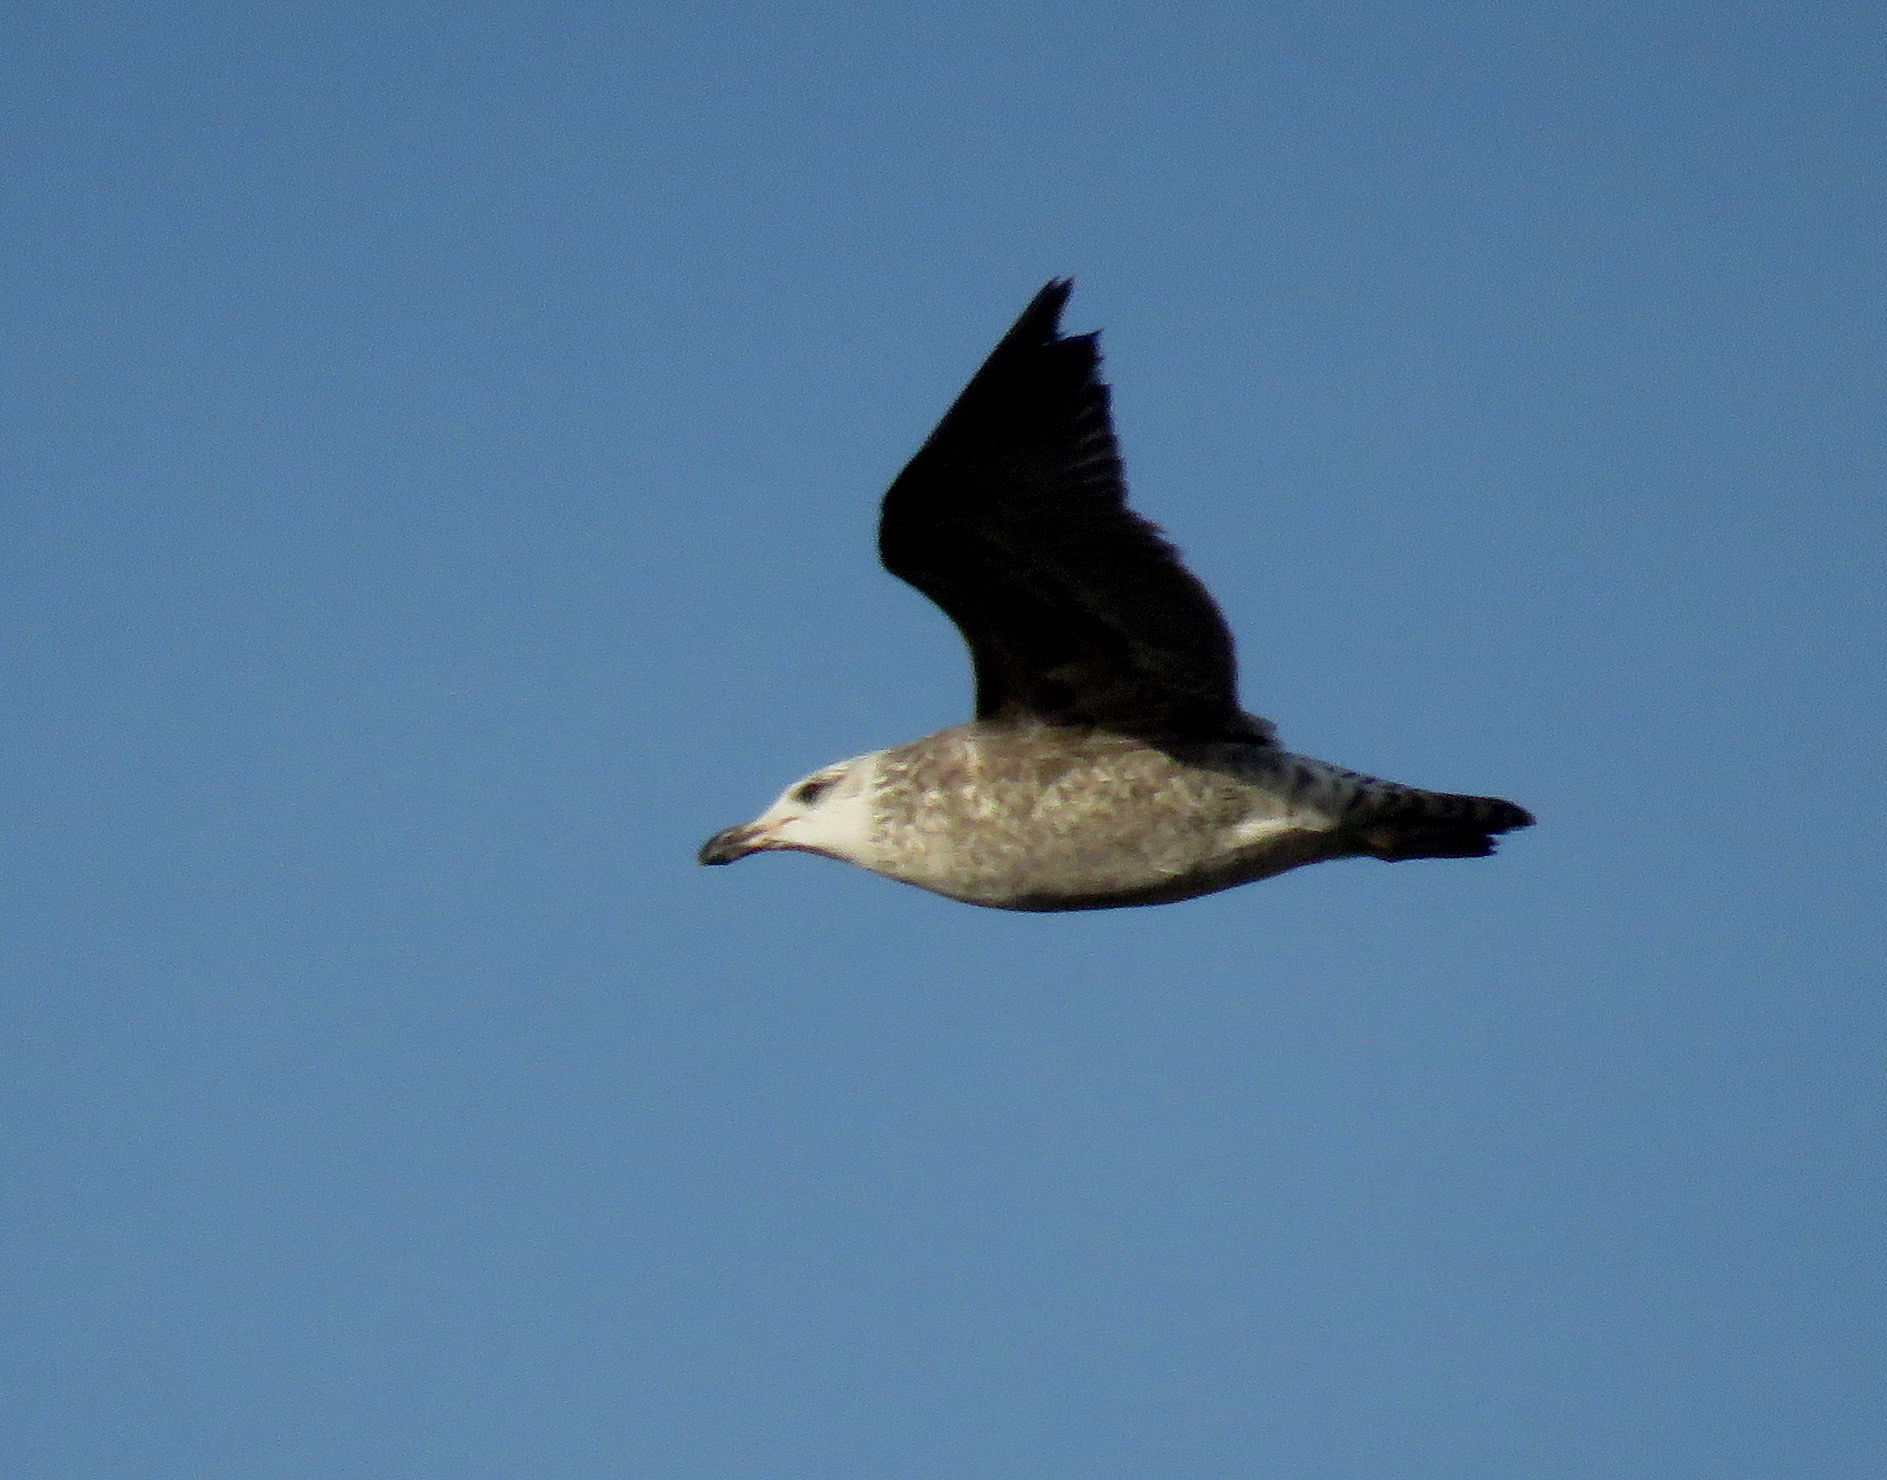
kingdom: Animalia
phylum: Chordata
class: Aves
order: Charadriiformes
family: Laridae
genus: Larus
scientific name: Larus dominicanus
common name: Kelp gull
